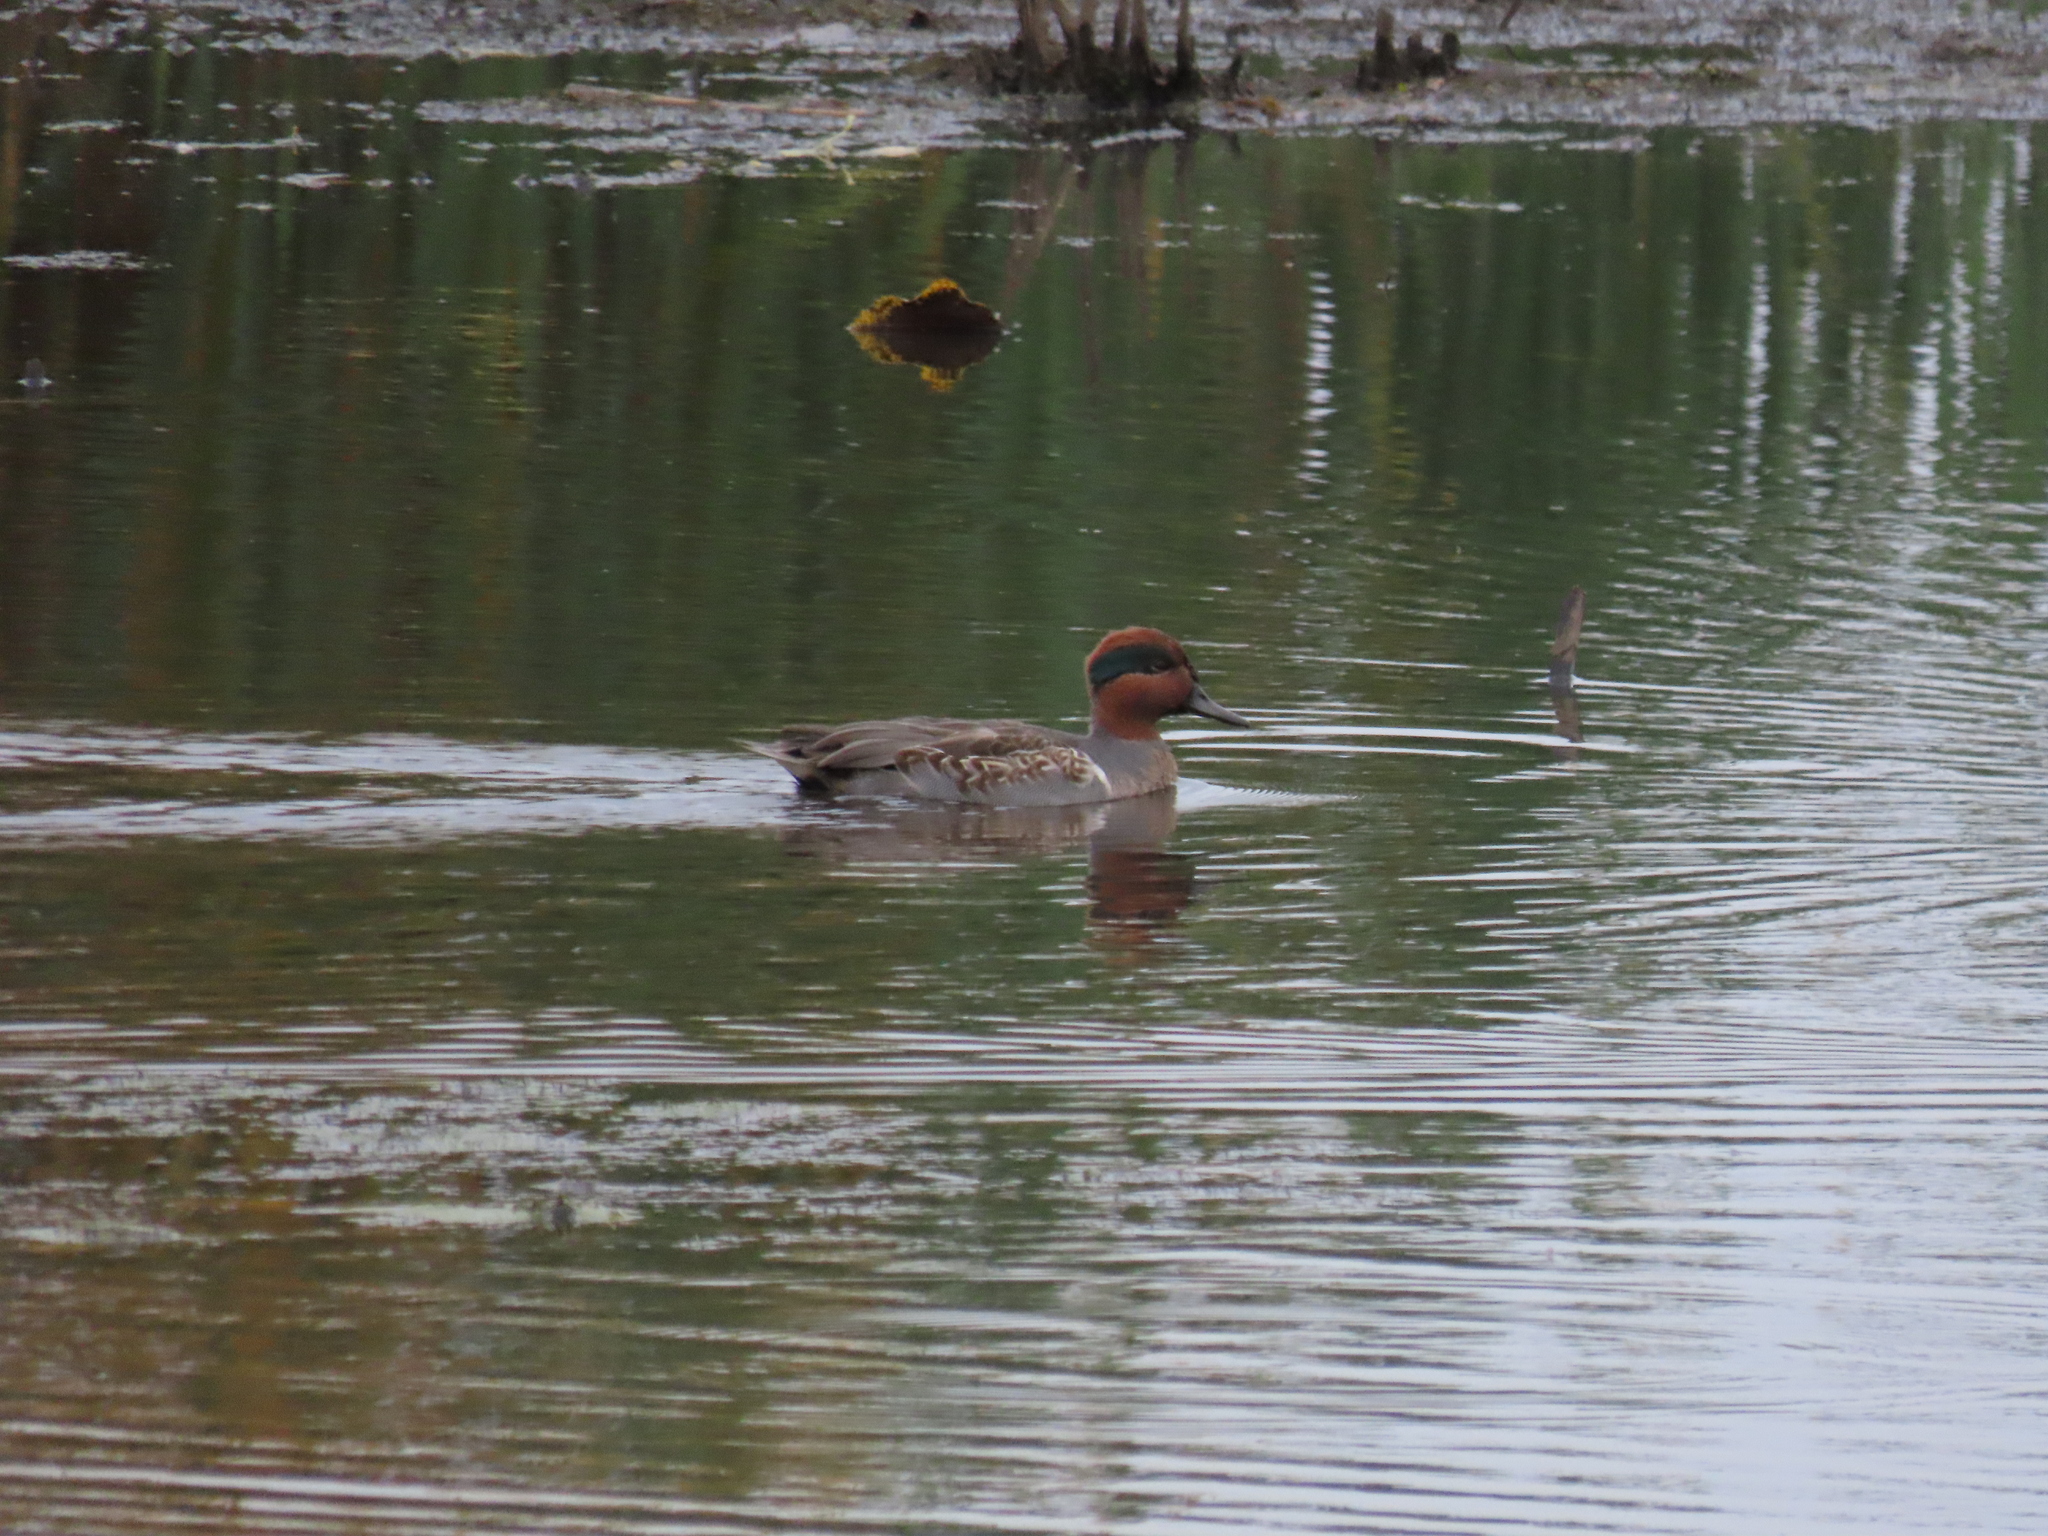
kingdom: Animalia
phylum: Chordata
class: Aves
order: Anseriformes
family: Anatidae
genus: Anas
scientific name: Anas crecca
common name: Eurasian teal
